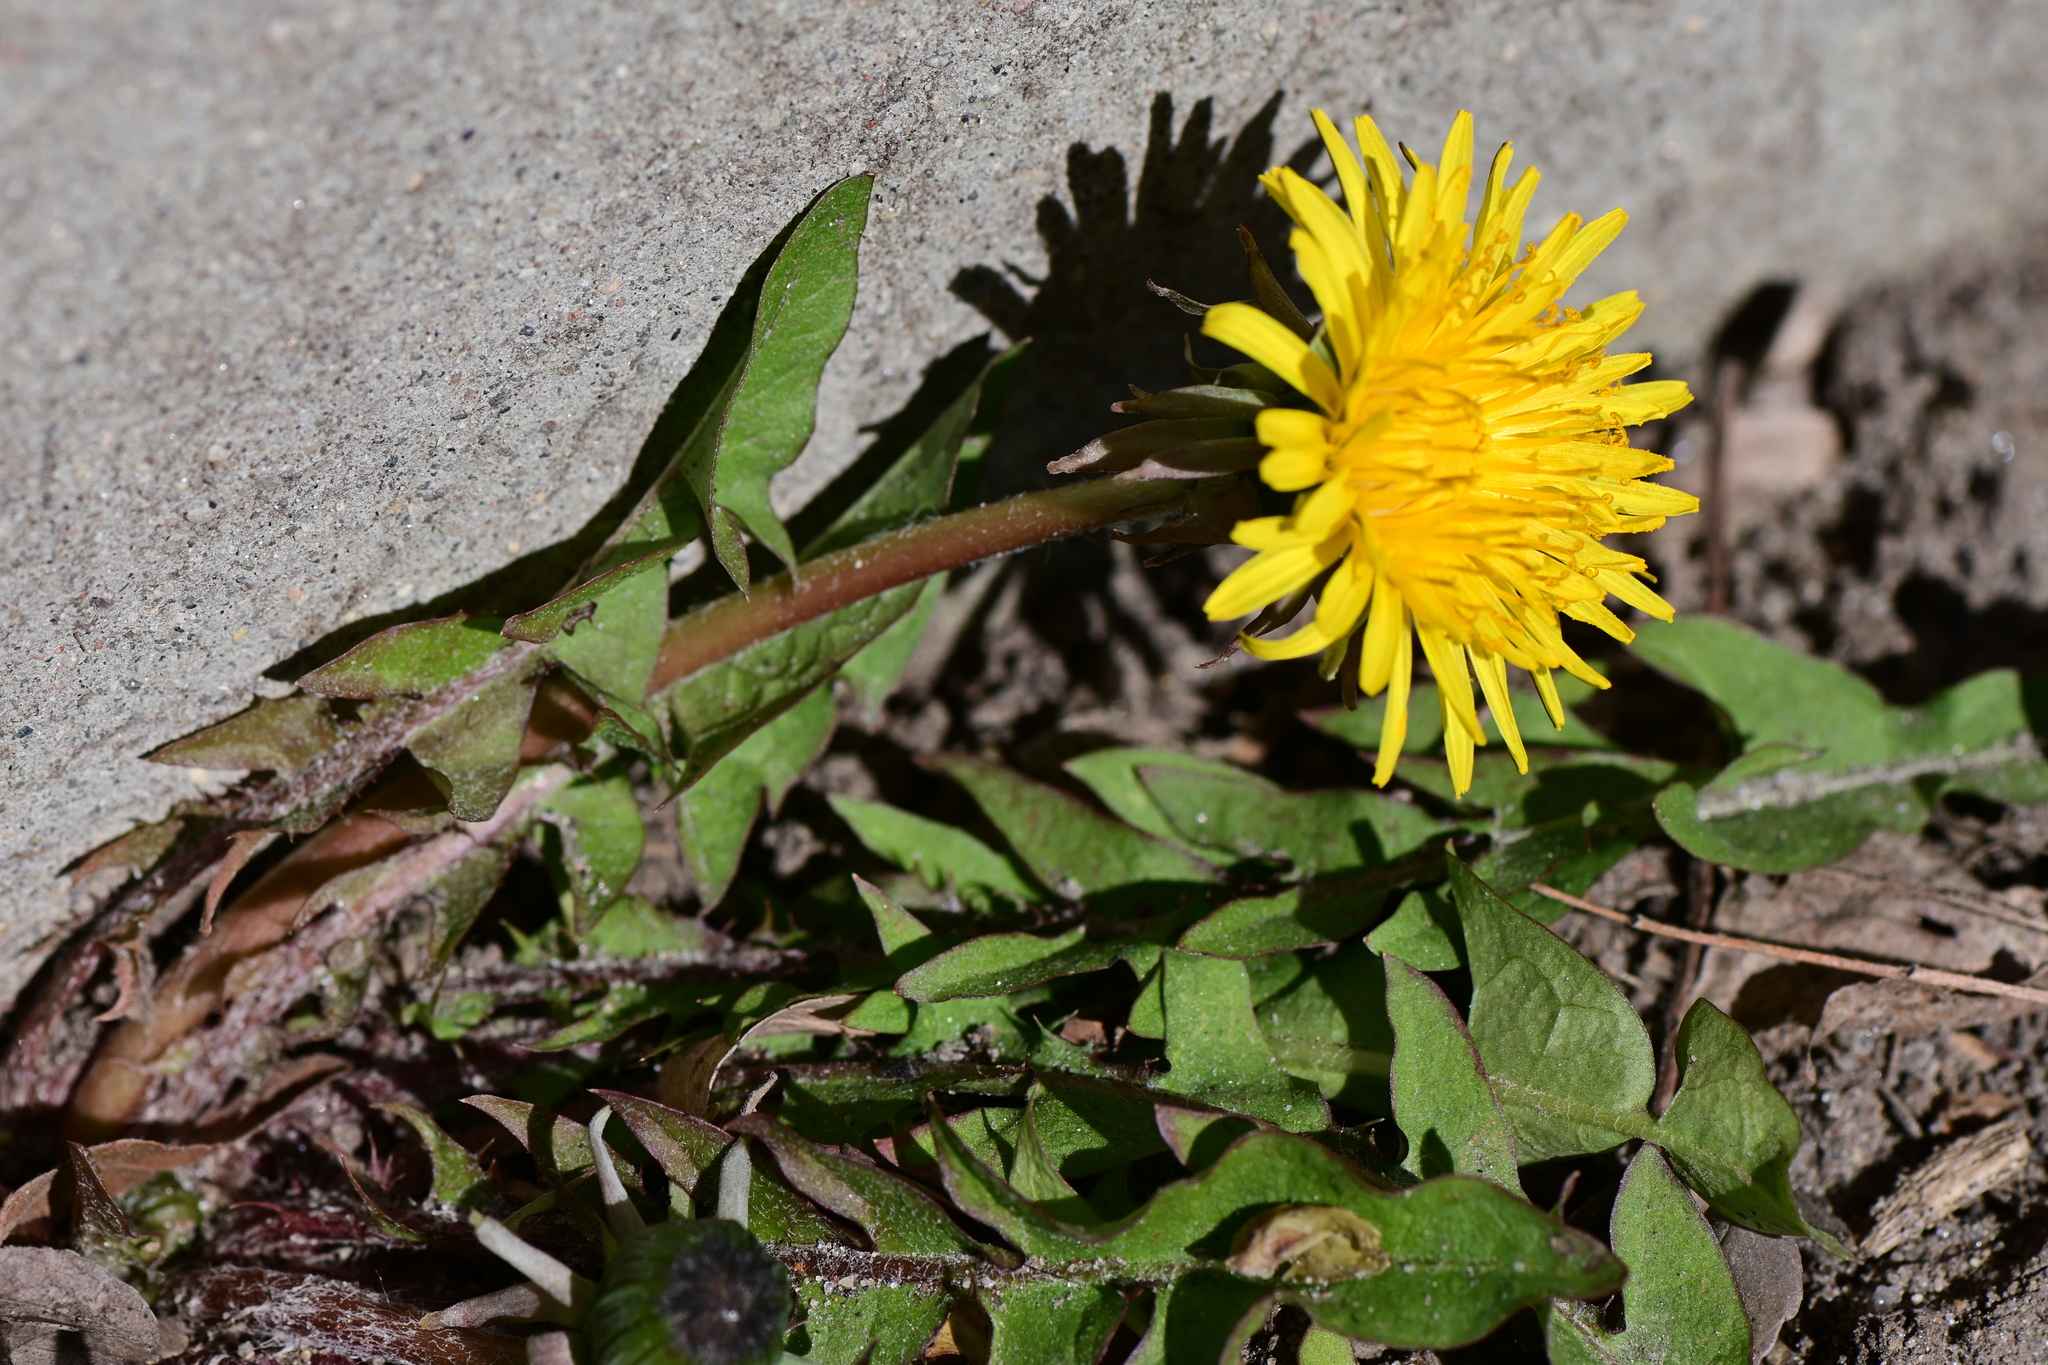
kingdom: Plantae
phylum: Tracheophyta
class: Magnoliopsida
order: Asterales
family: Asteraceae
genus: Taraxacum
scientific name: Taraxacum officinale
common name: Common dandelion
